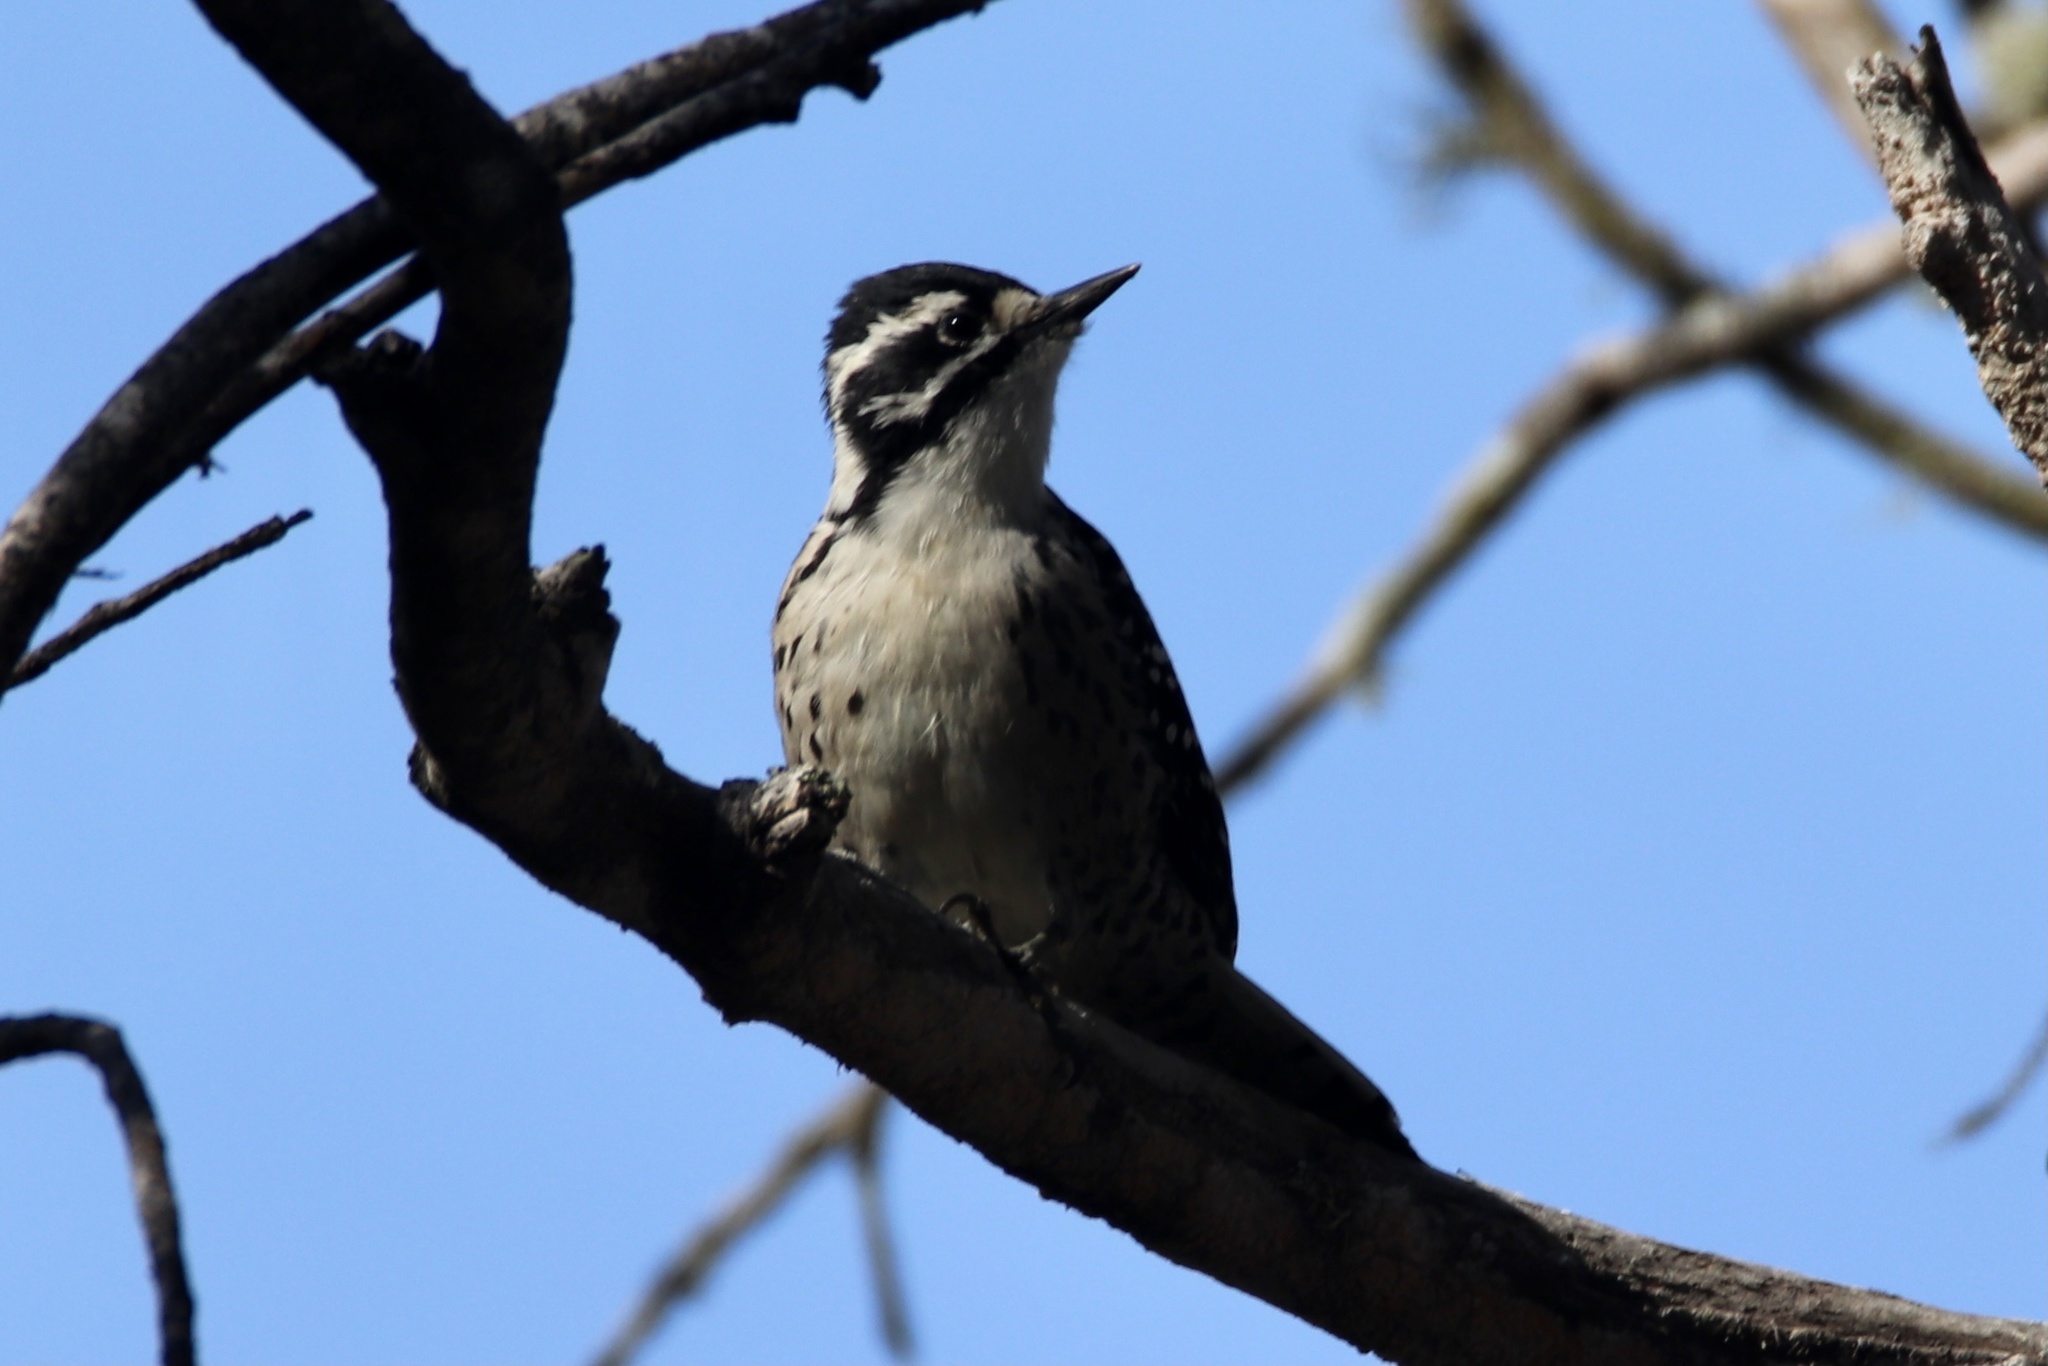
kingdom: Animalia
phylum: Chordata
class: Aves
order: Piciformes
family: Picidae
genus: Dryobates
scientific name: Dryobates nuttallii
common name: Nuttall's woodpecker
